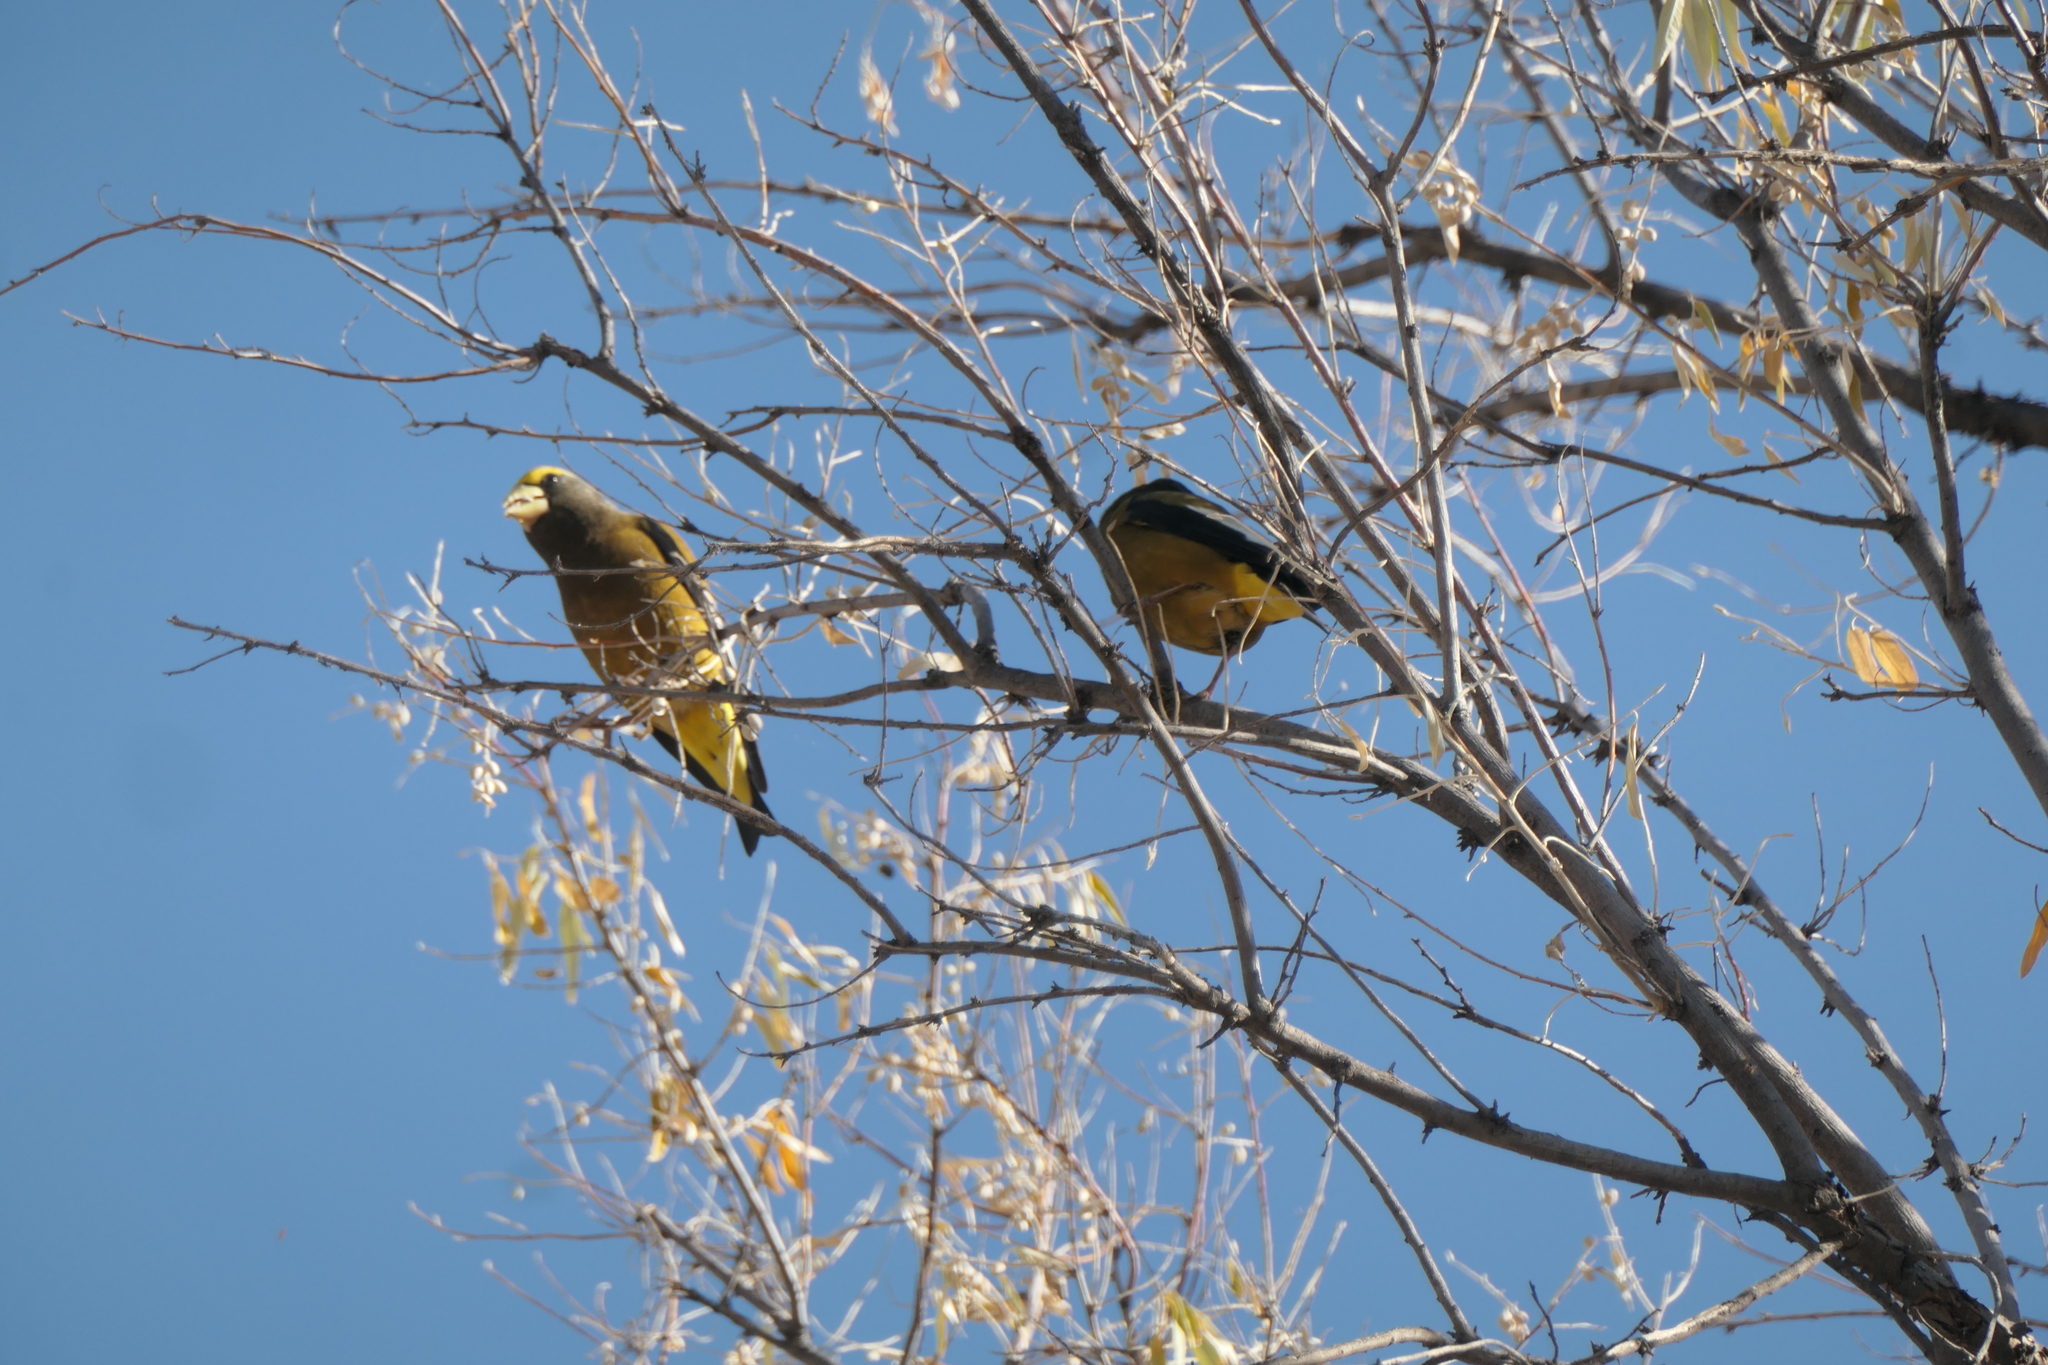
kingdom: Animalia
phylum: Chordata
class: Aves
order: Passeriformes
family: Fringillidae
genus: Hesperiphona
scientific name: Hesperiphona vespertina
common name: Evening grosbeak
